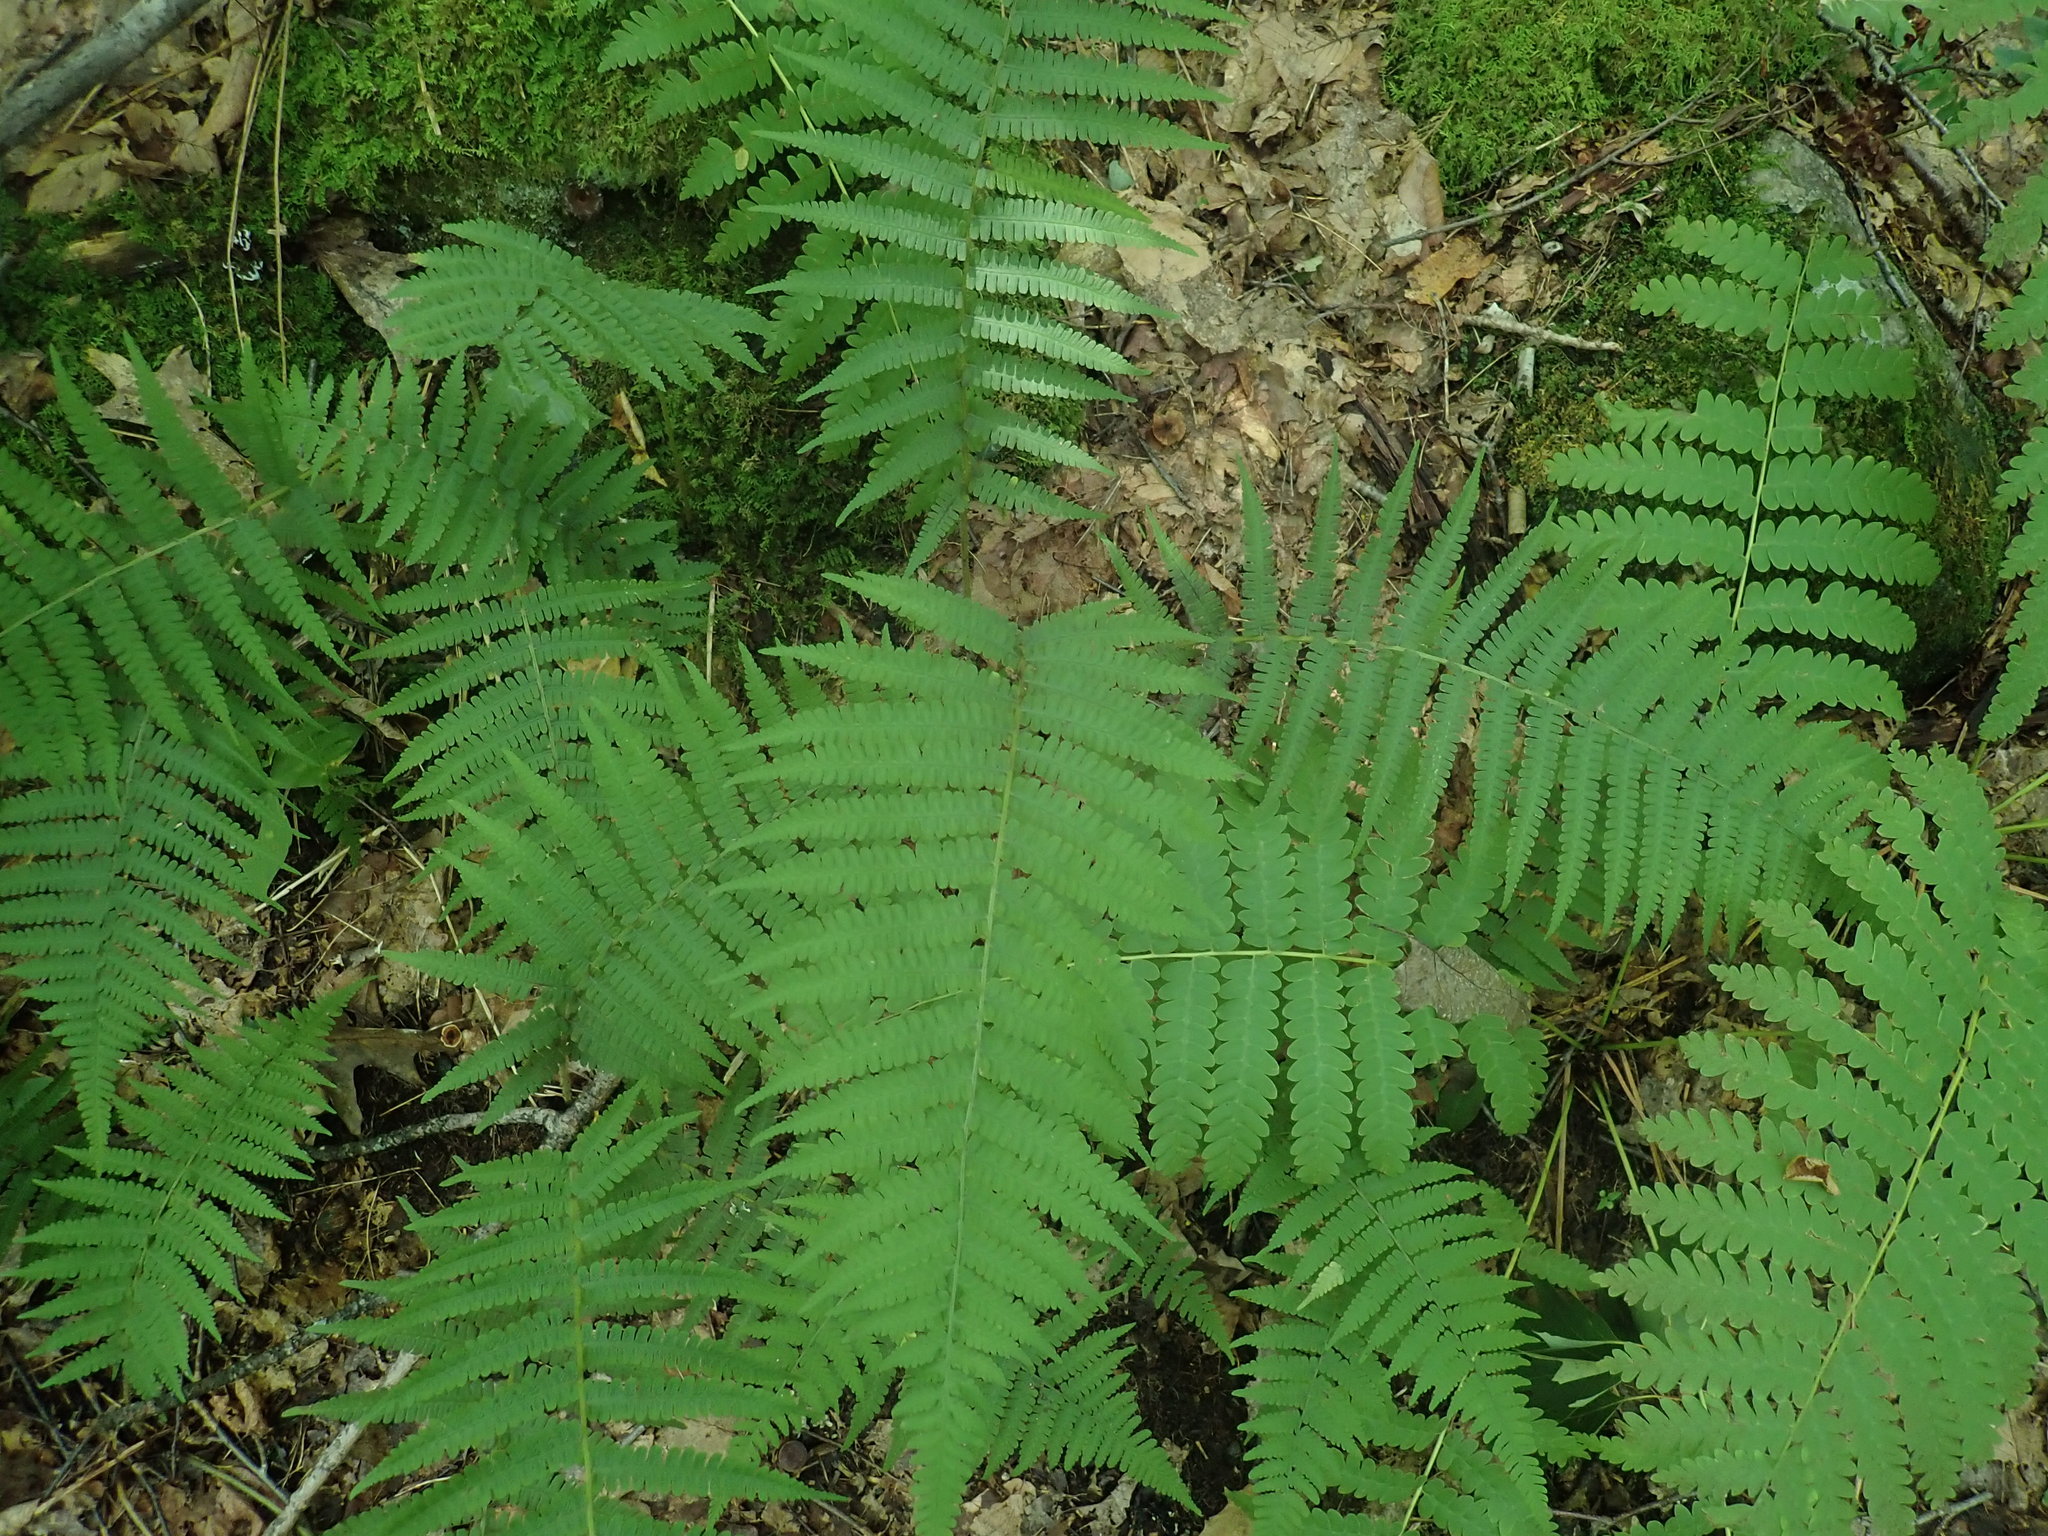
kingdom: Plantae
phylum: Tracheophyta
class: Polypodiopsida
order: Polypodiales
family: Athyriaceae
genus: Deparia
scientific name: Deparia acrostichoides
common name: Silver false spleenwort
